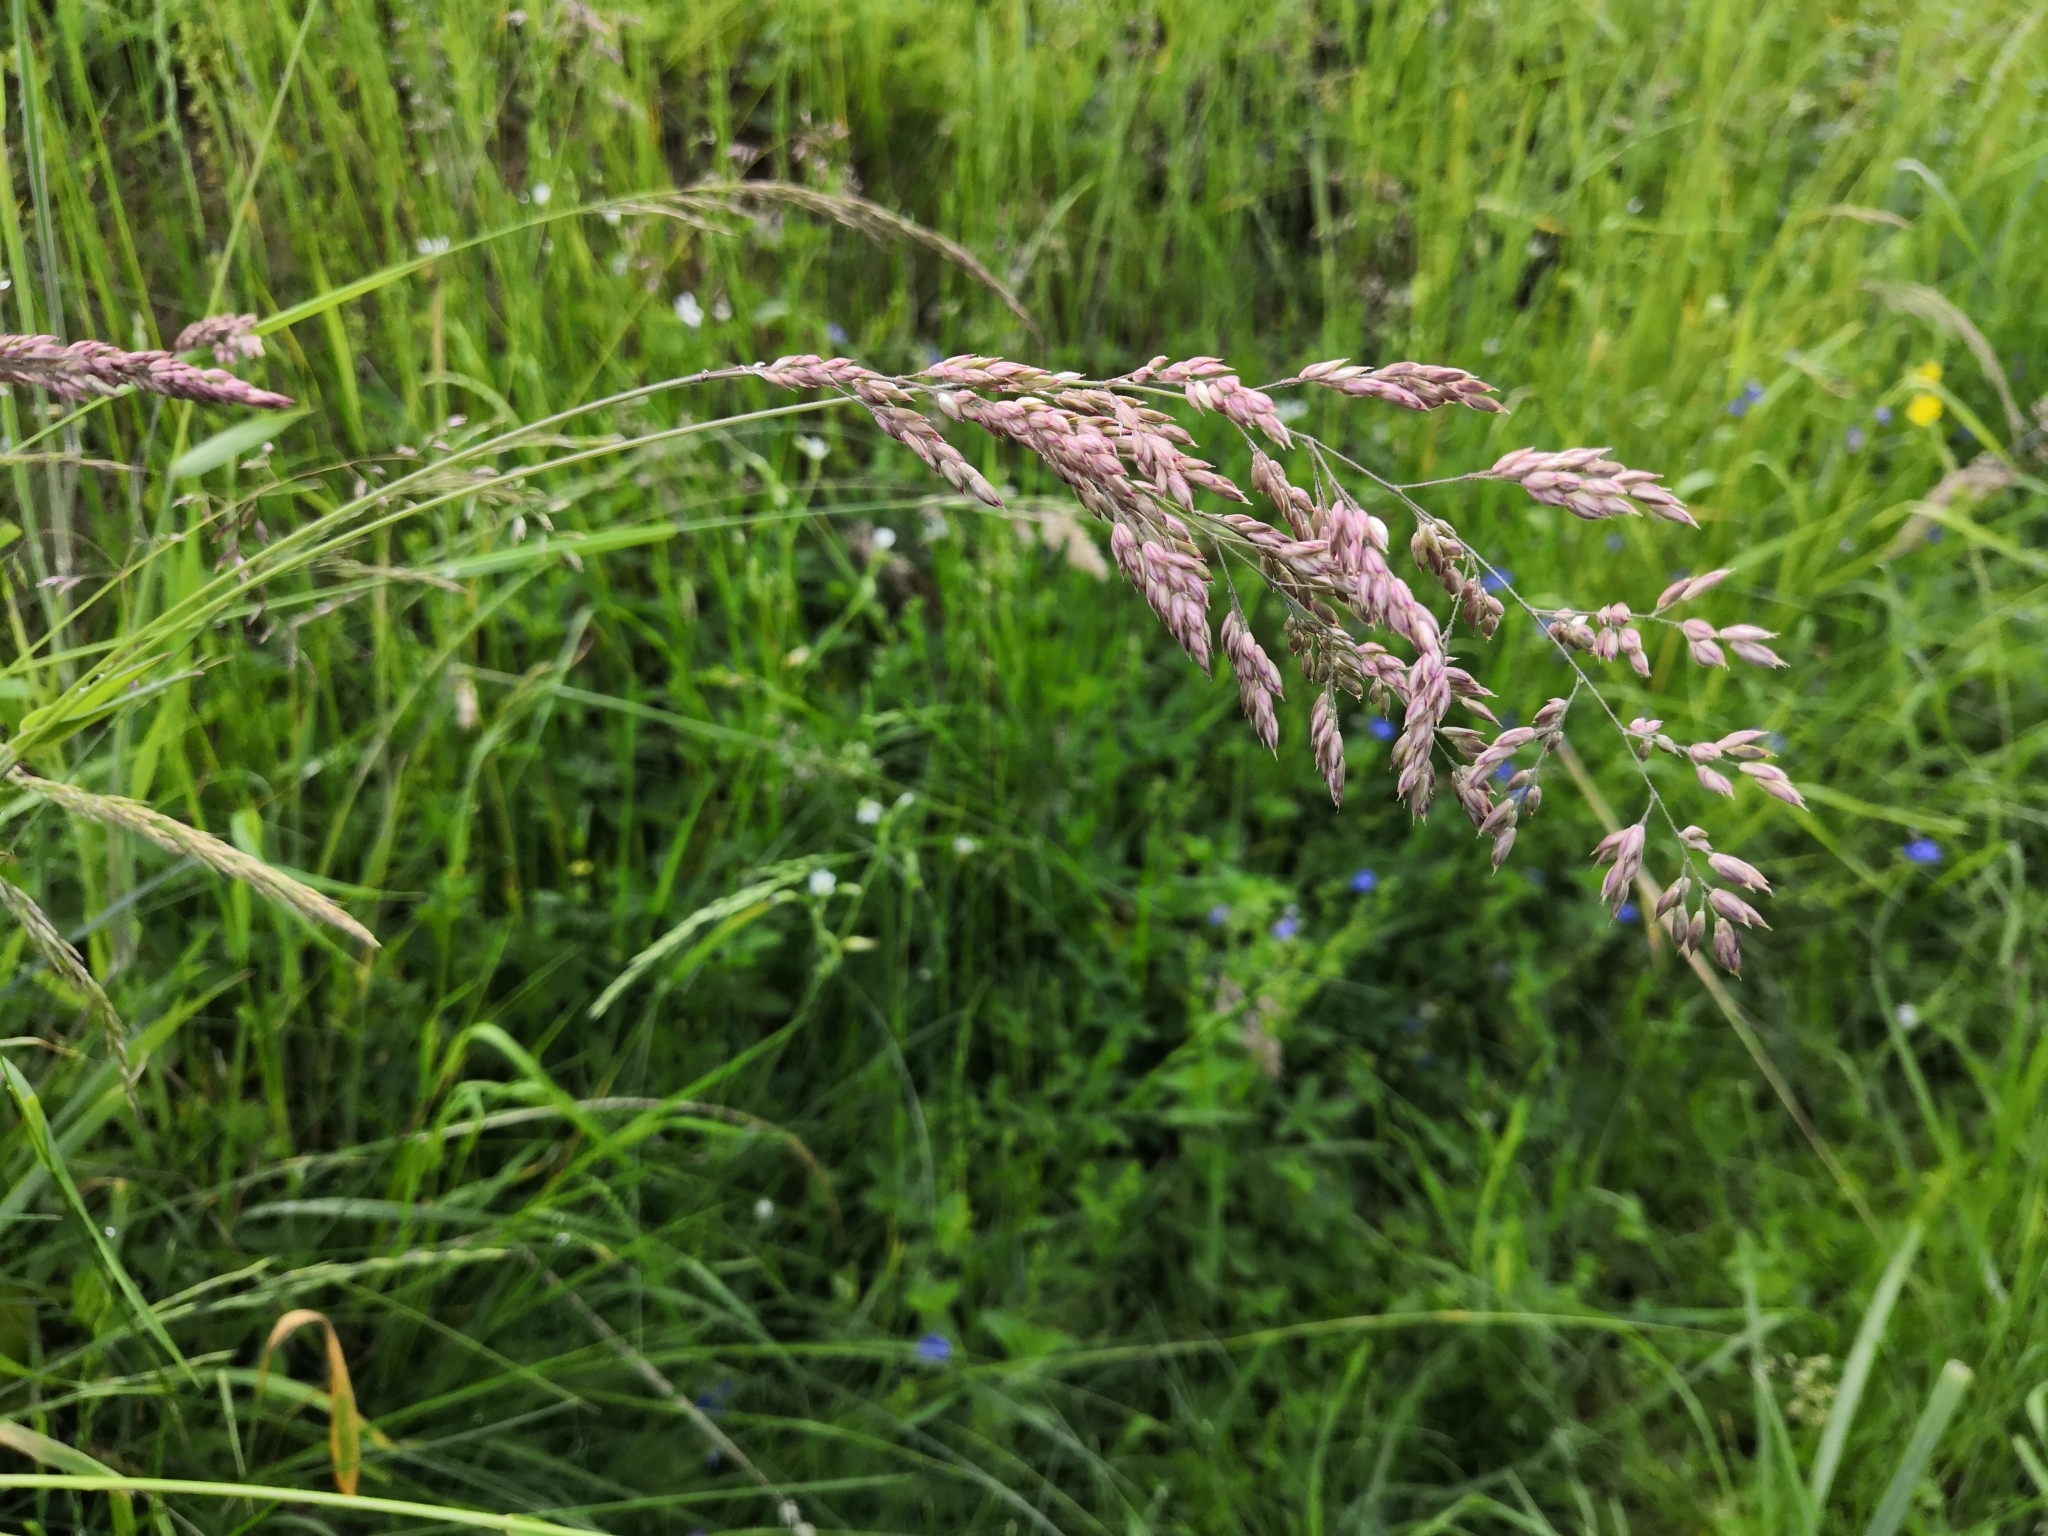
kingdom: Plantae
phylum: Tracheophyta
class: Liliopsida
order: Poales
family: Poaceae
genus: Holcus
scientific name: Holcus lanatus
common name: Yorkshire-fog
